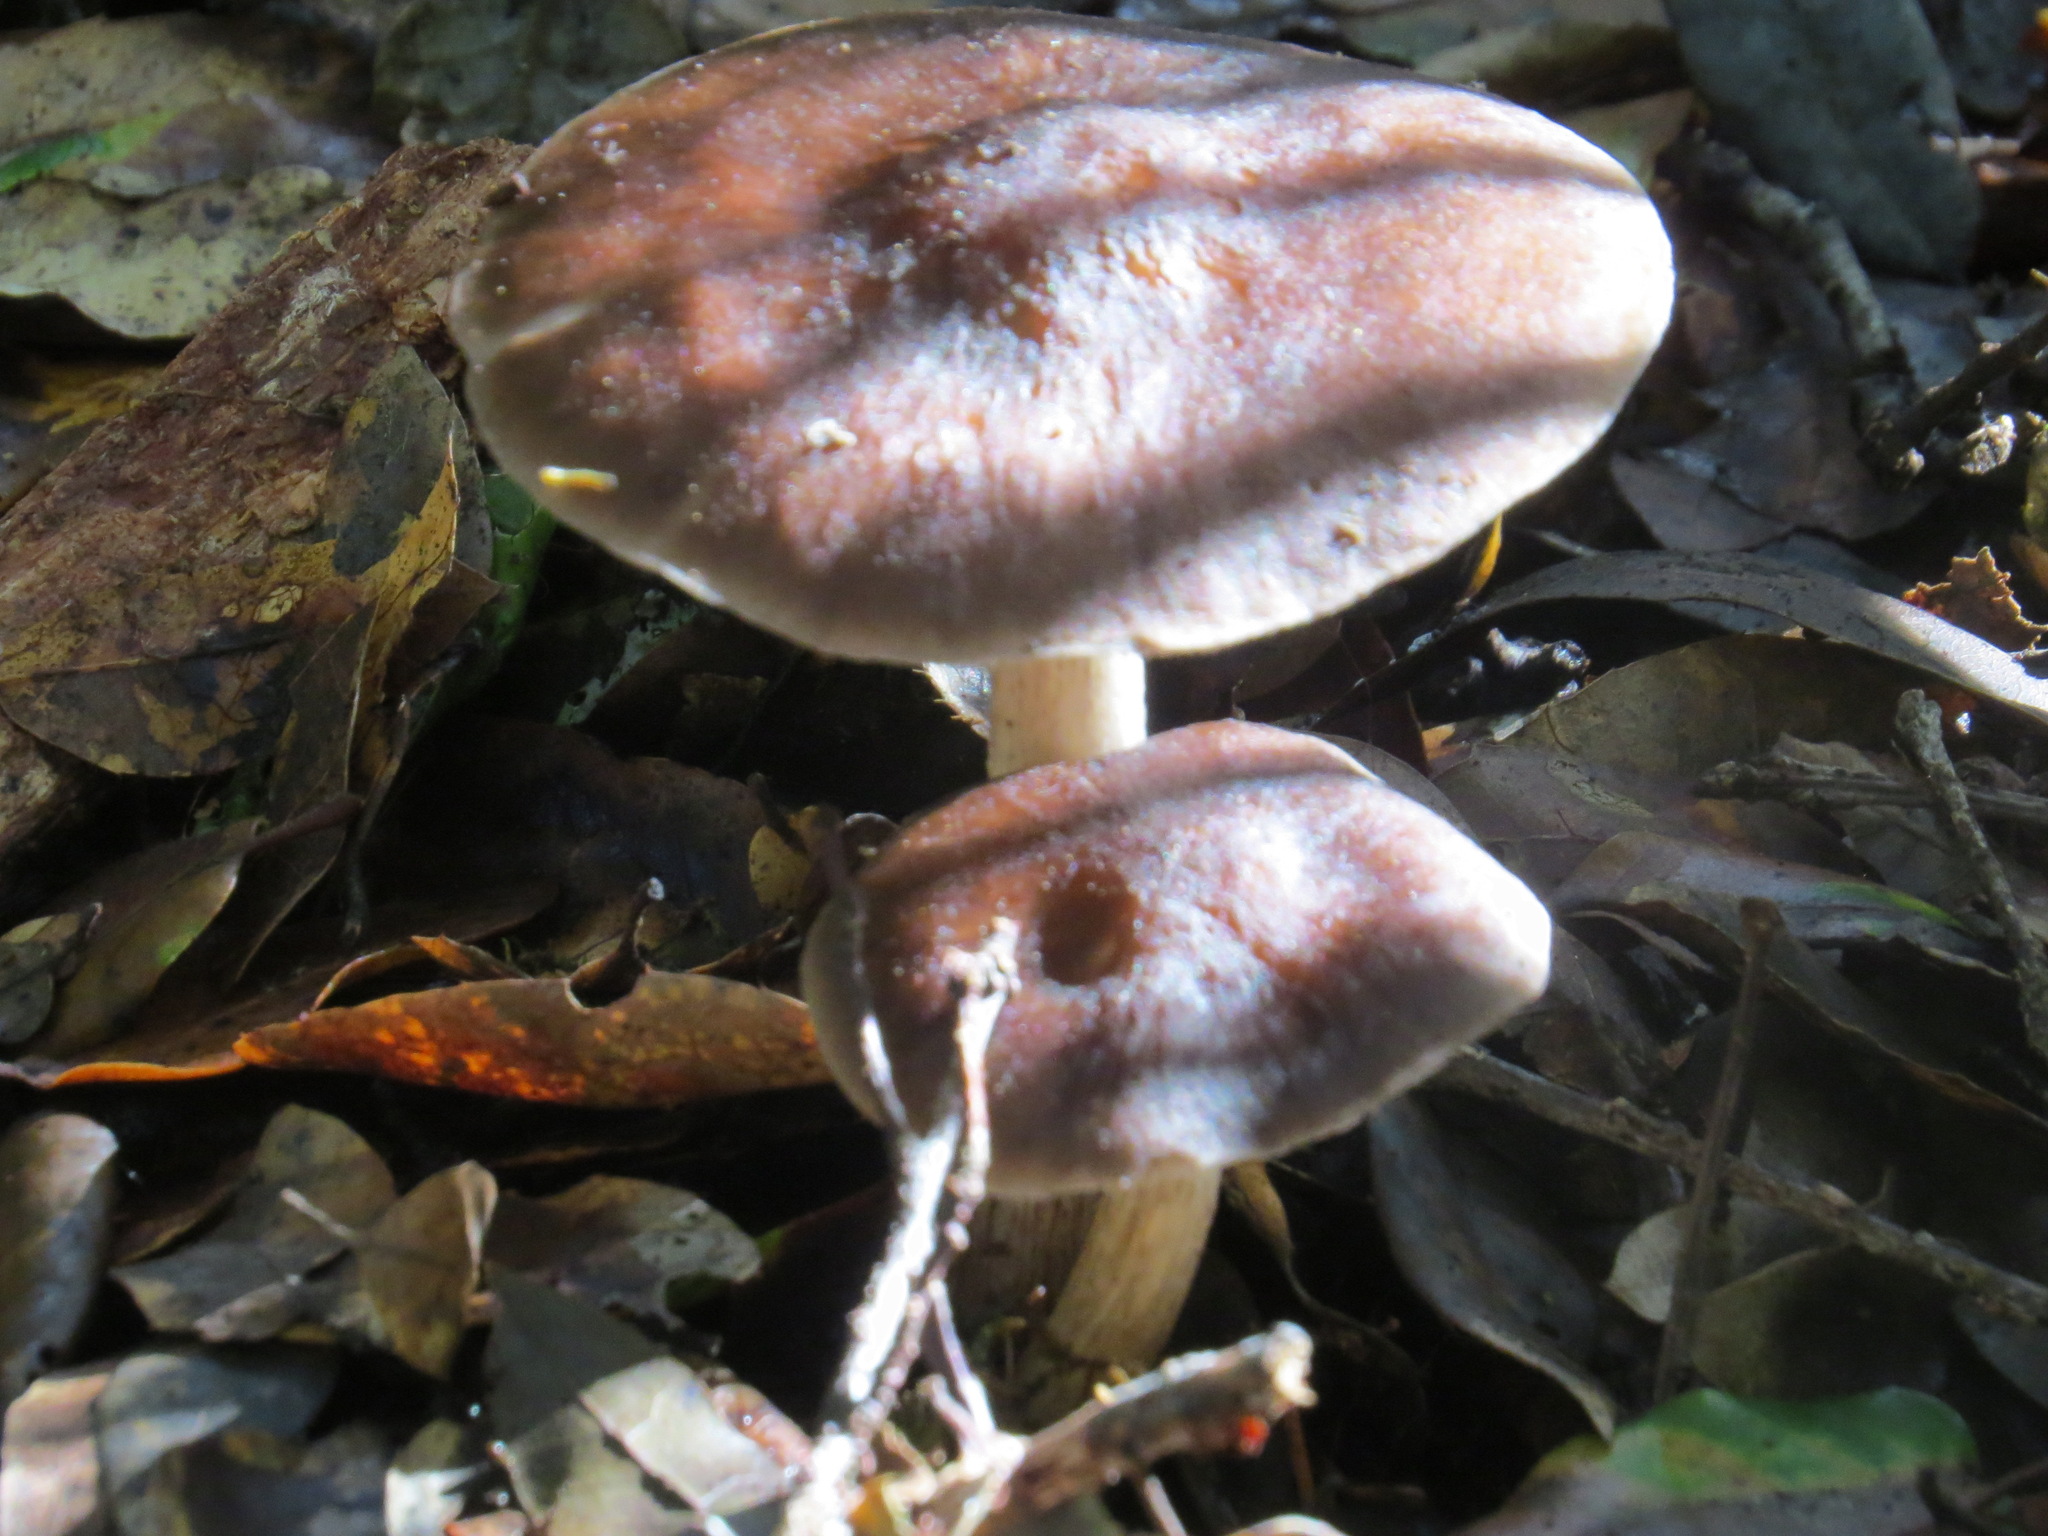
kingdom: Fungi
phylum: Basidiomycota
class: Agaricomycetes
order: Agaricales
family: Pluteaceae
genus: Pluteus
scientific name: Pluteus exilis
